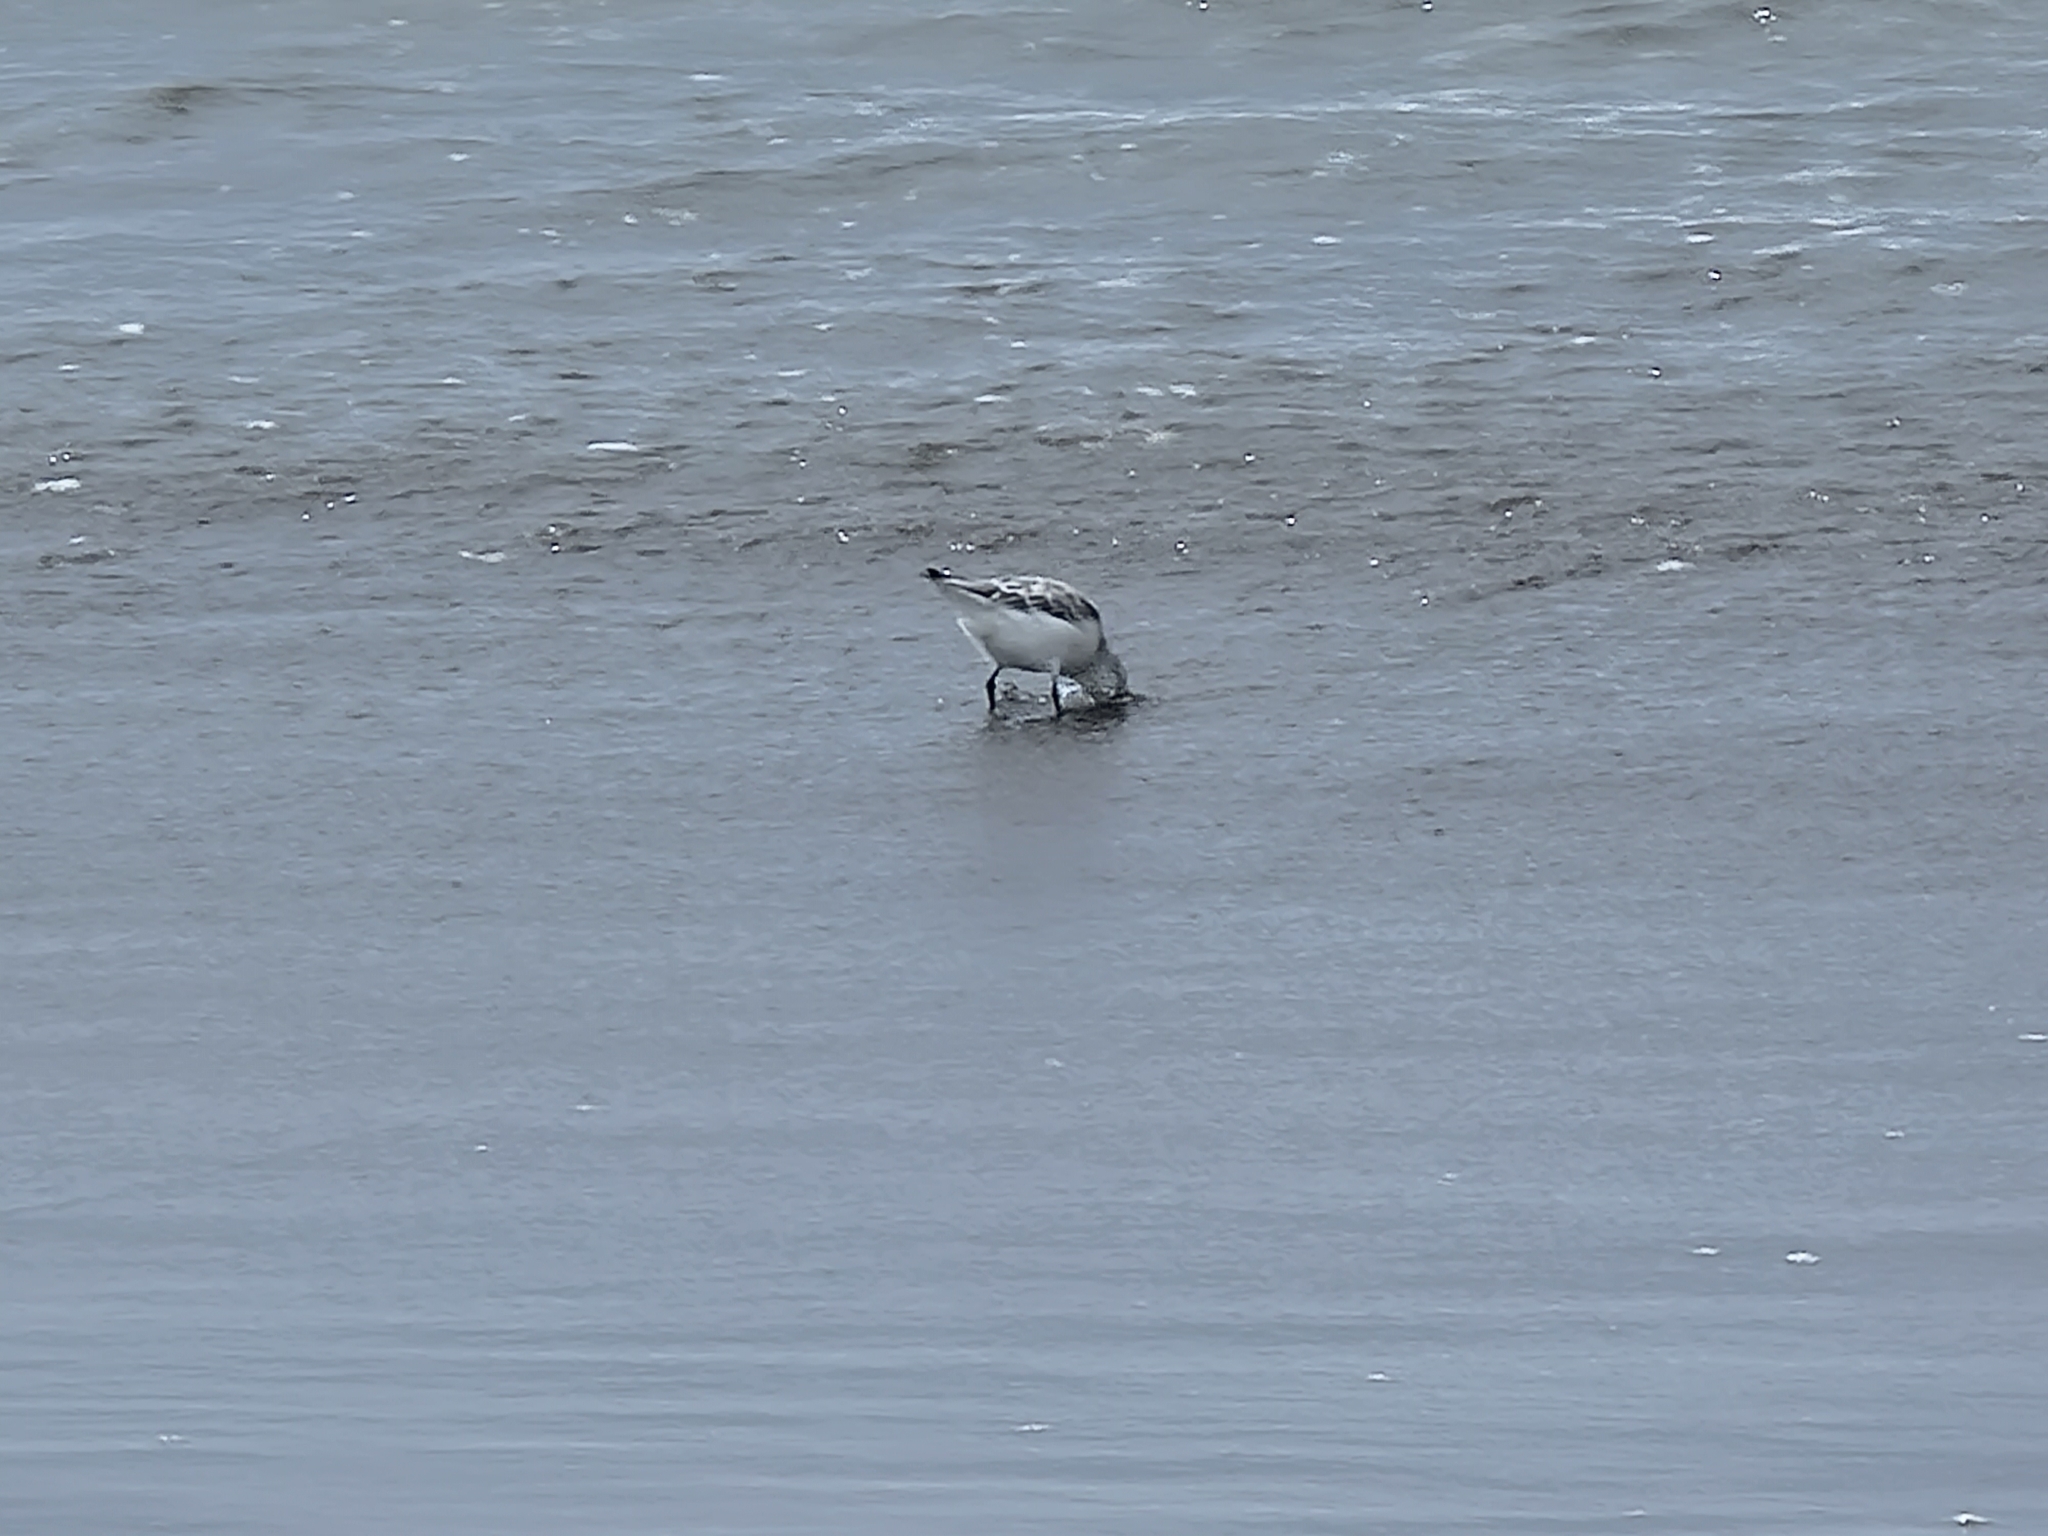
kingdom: Animalia
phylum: Chordata
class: Aves
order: Charadriiformes
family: Scolopacidae
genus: Calidris
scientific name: Calidris alba
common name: Sanderling
